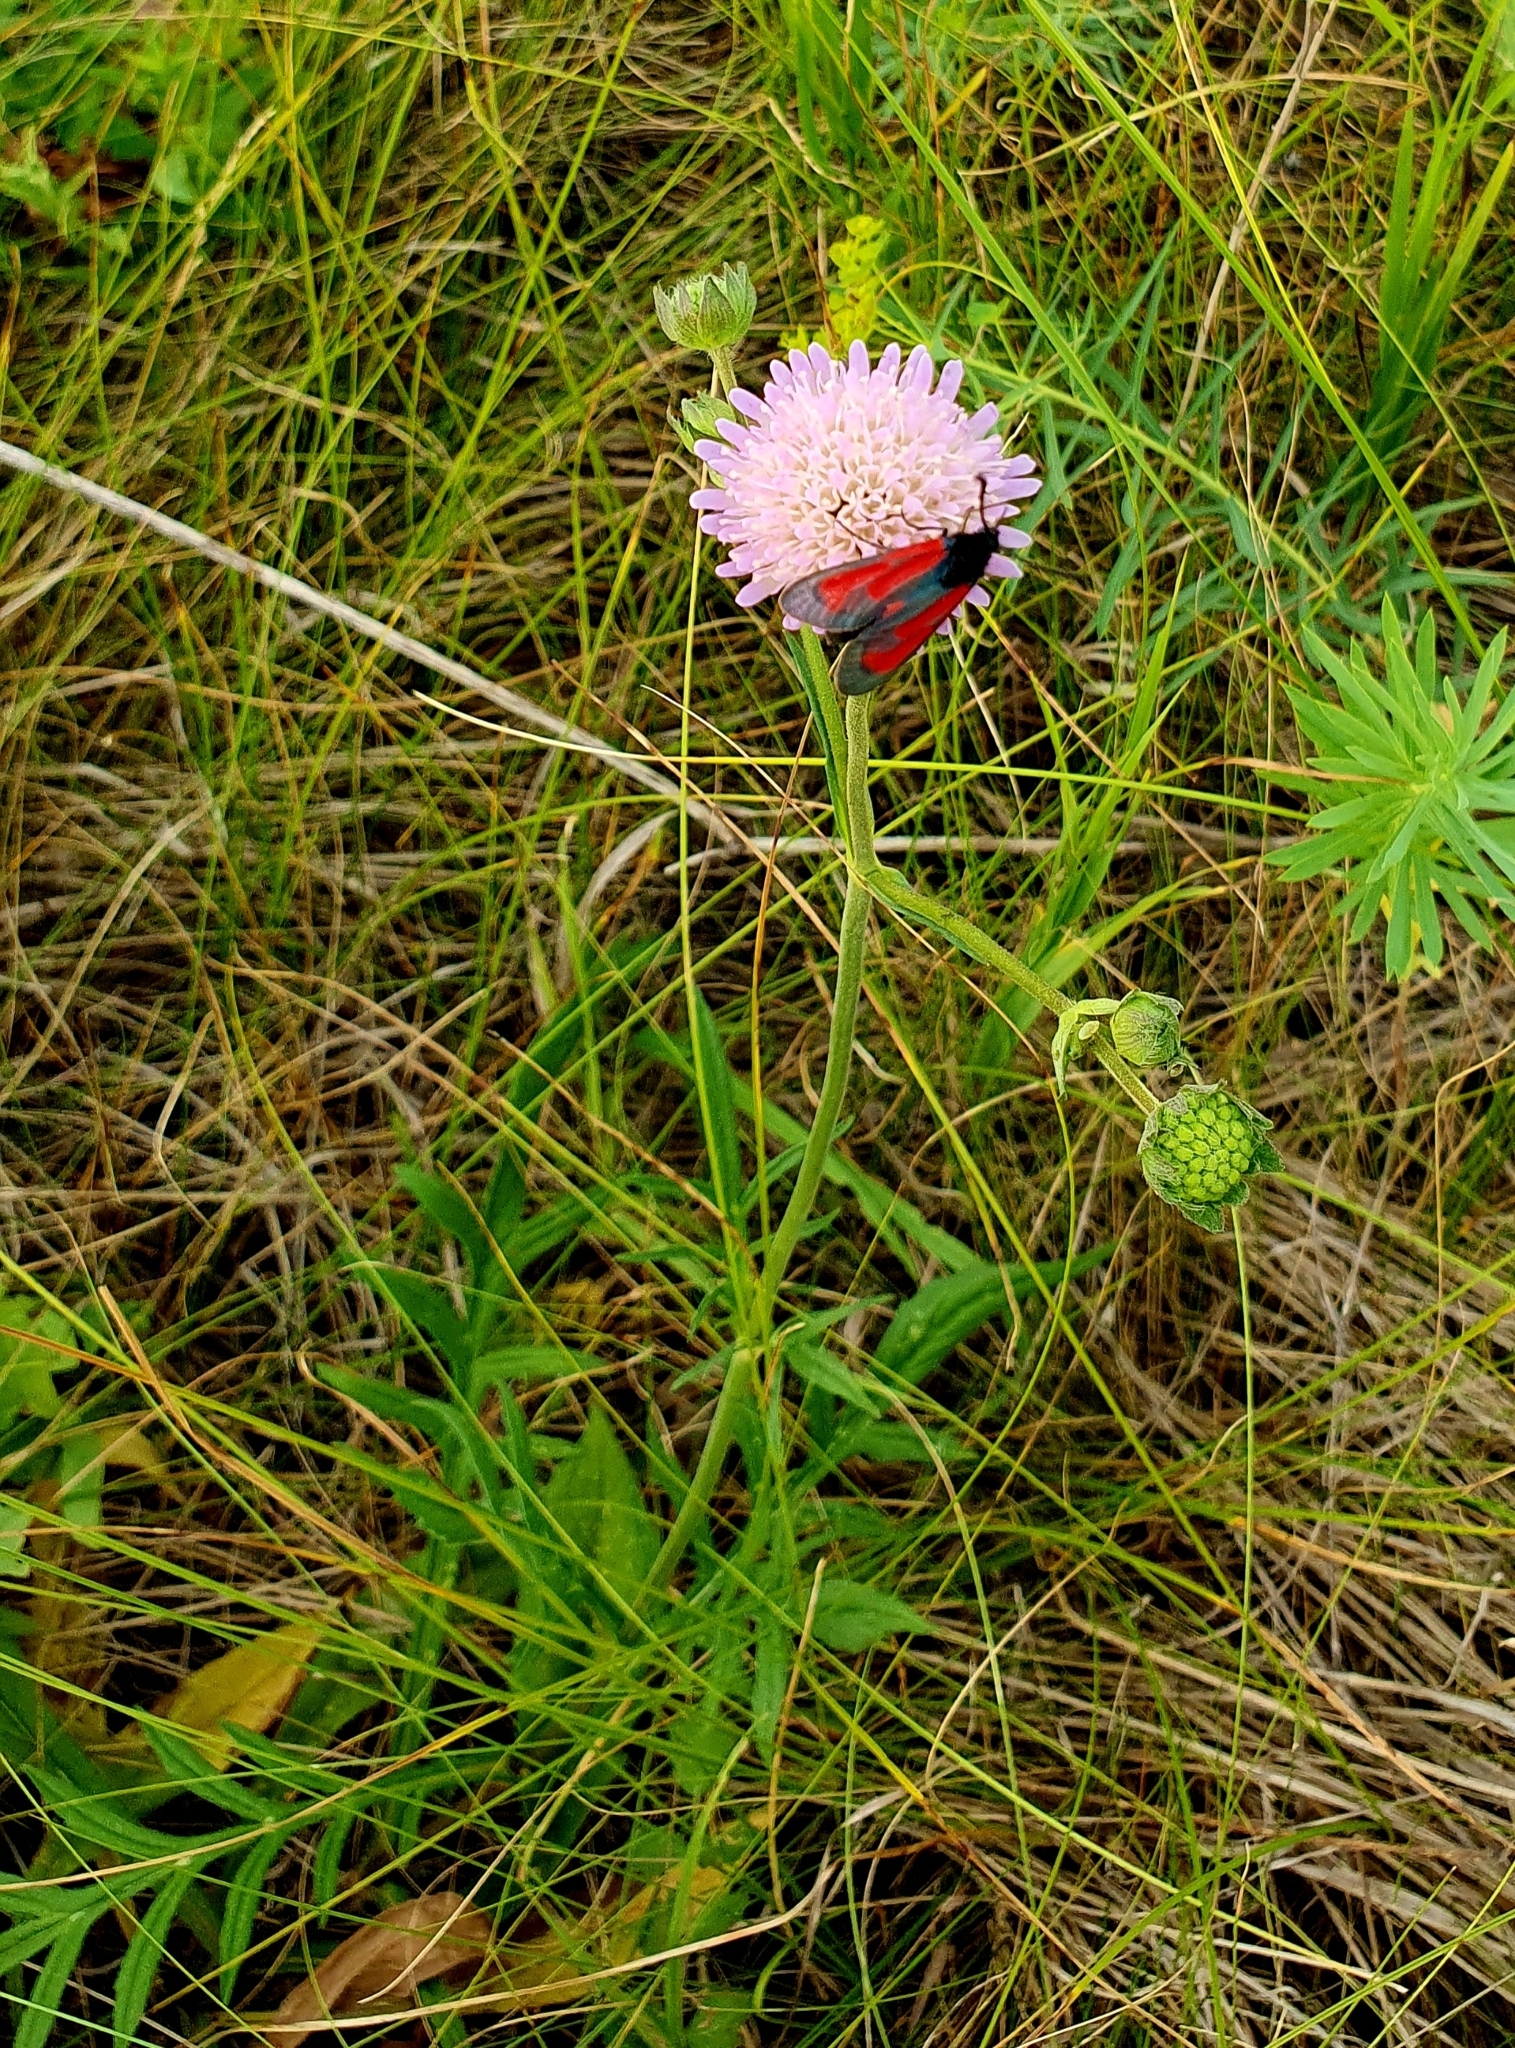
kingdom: Plantae
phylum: Tracheophyta
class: Magnoliopsida
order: Dipsacales
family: Caprifoliaceae
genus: Knautia
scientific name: Knautia arvensis
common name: Field scabiosa
